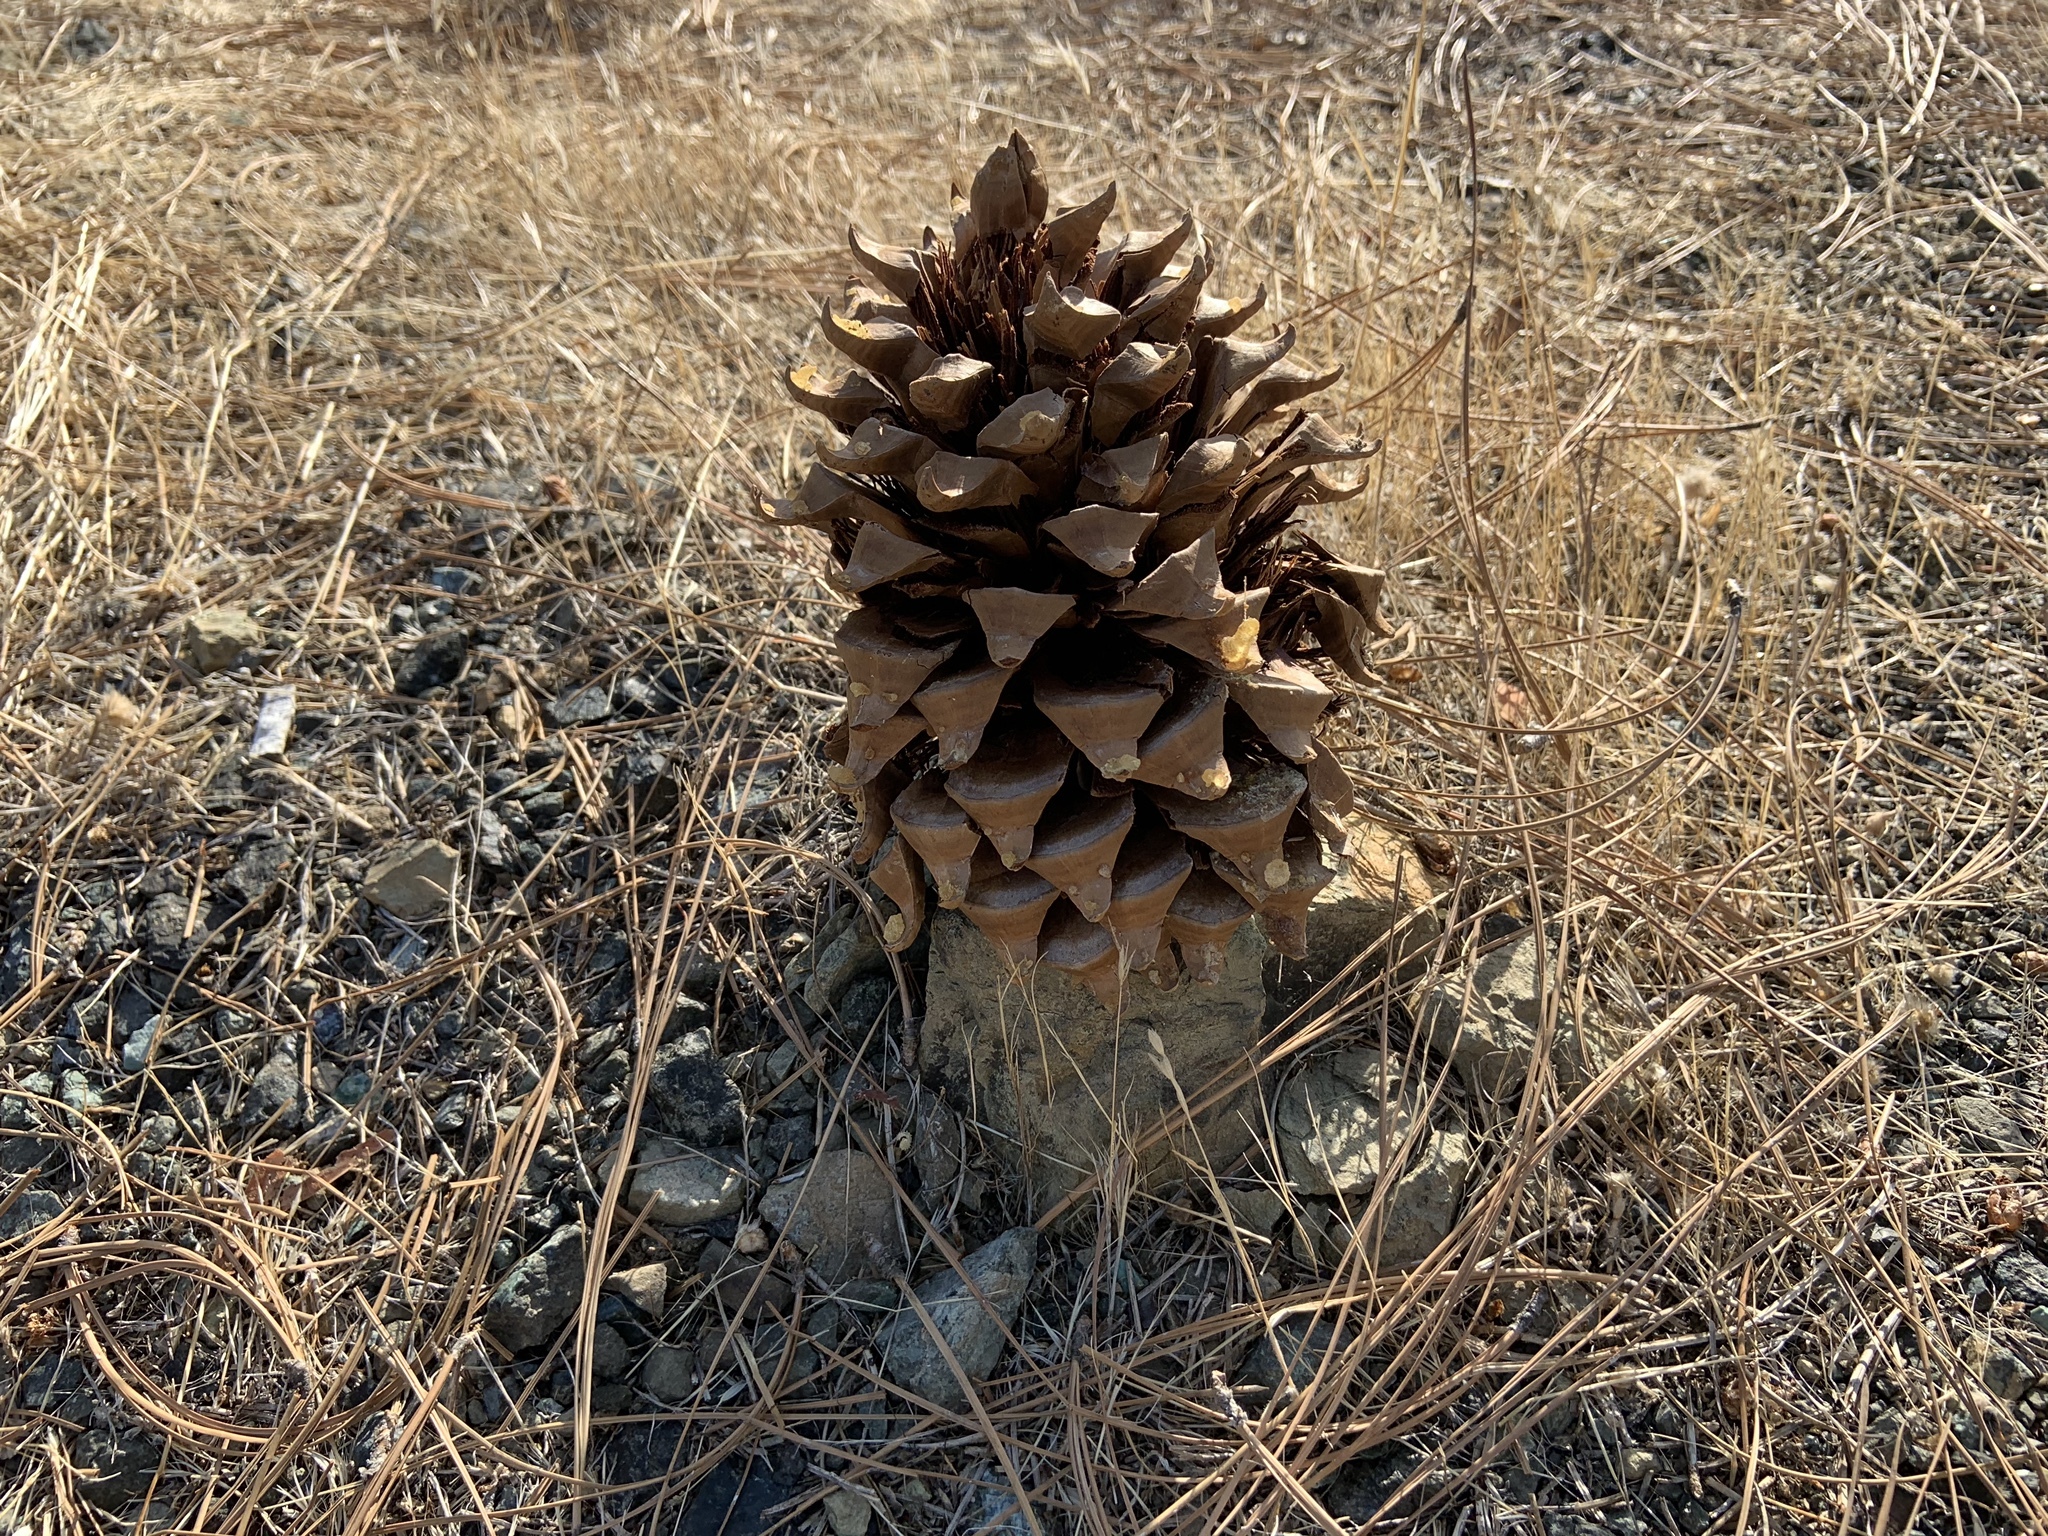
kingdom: Plantae
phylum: Tracheophyta
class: Pinopsida
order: Pinales
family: Pinaceae
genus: Pinus
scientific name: Pinus sabiniana
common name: Bull pine
